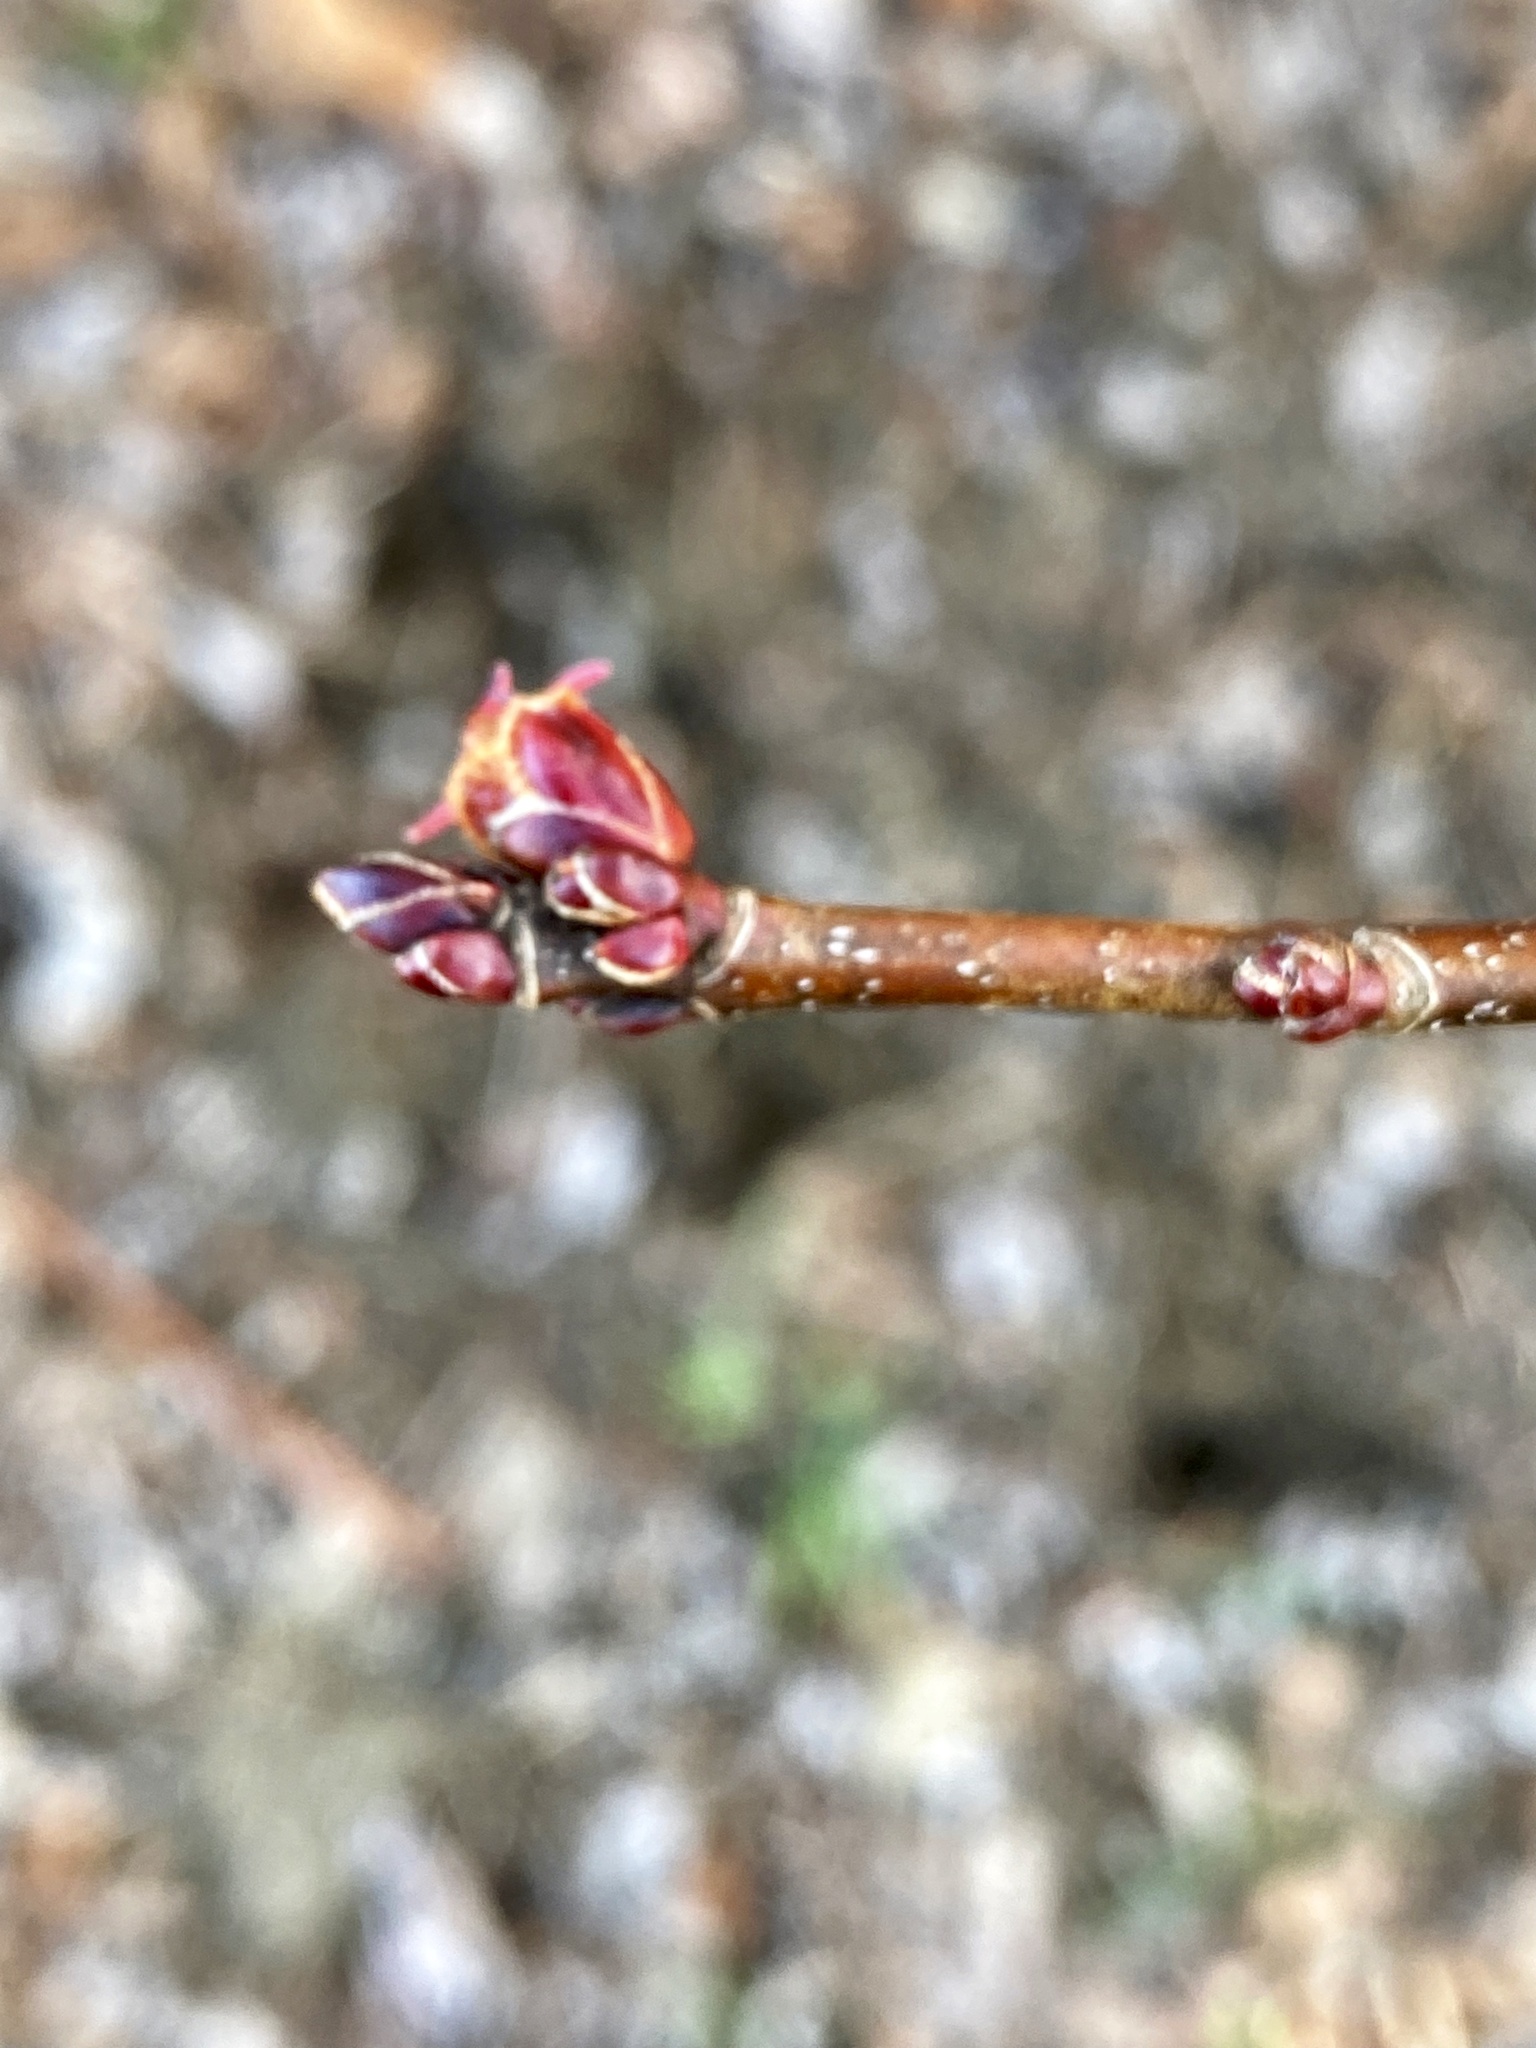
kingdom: Plantae
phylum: Tracheophyta
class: Magnoliopsida
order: Sapindales
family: Sapindaceae
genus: Acer
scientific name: Acer rubrum
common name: Red maple
